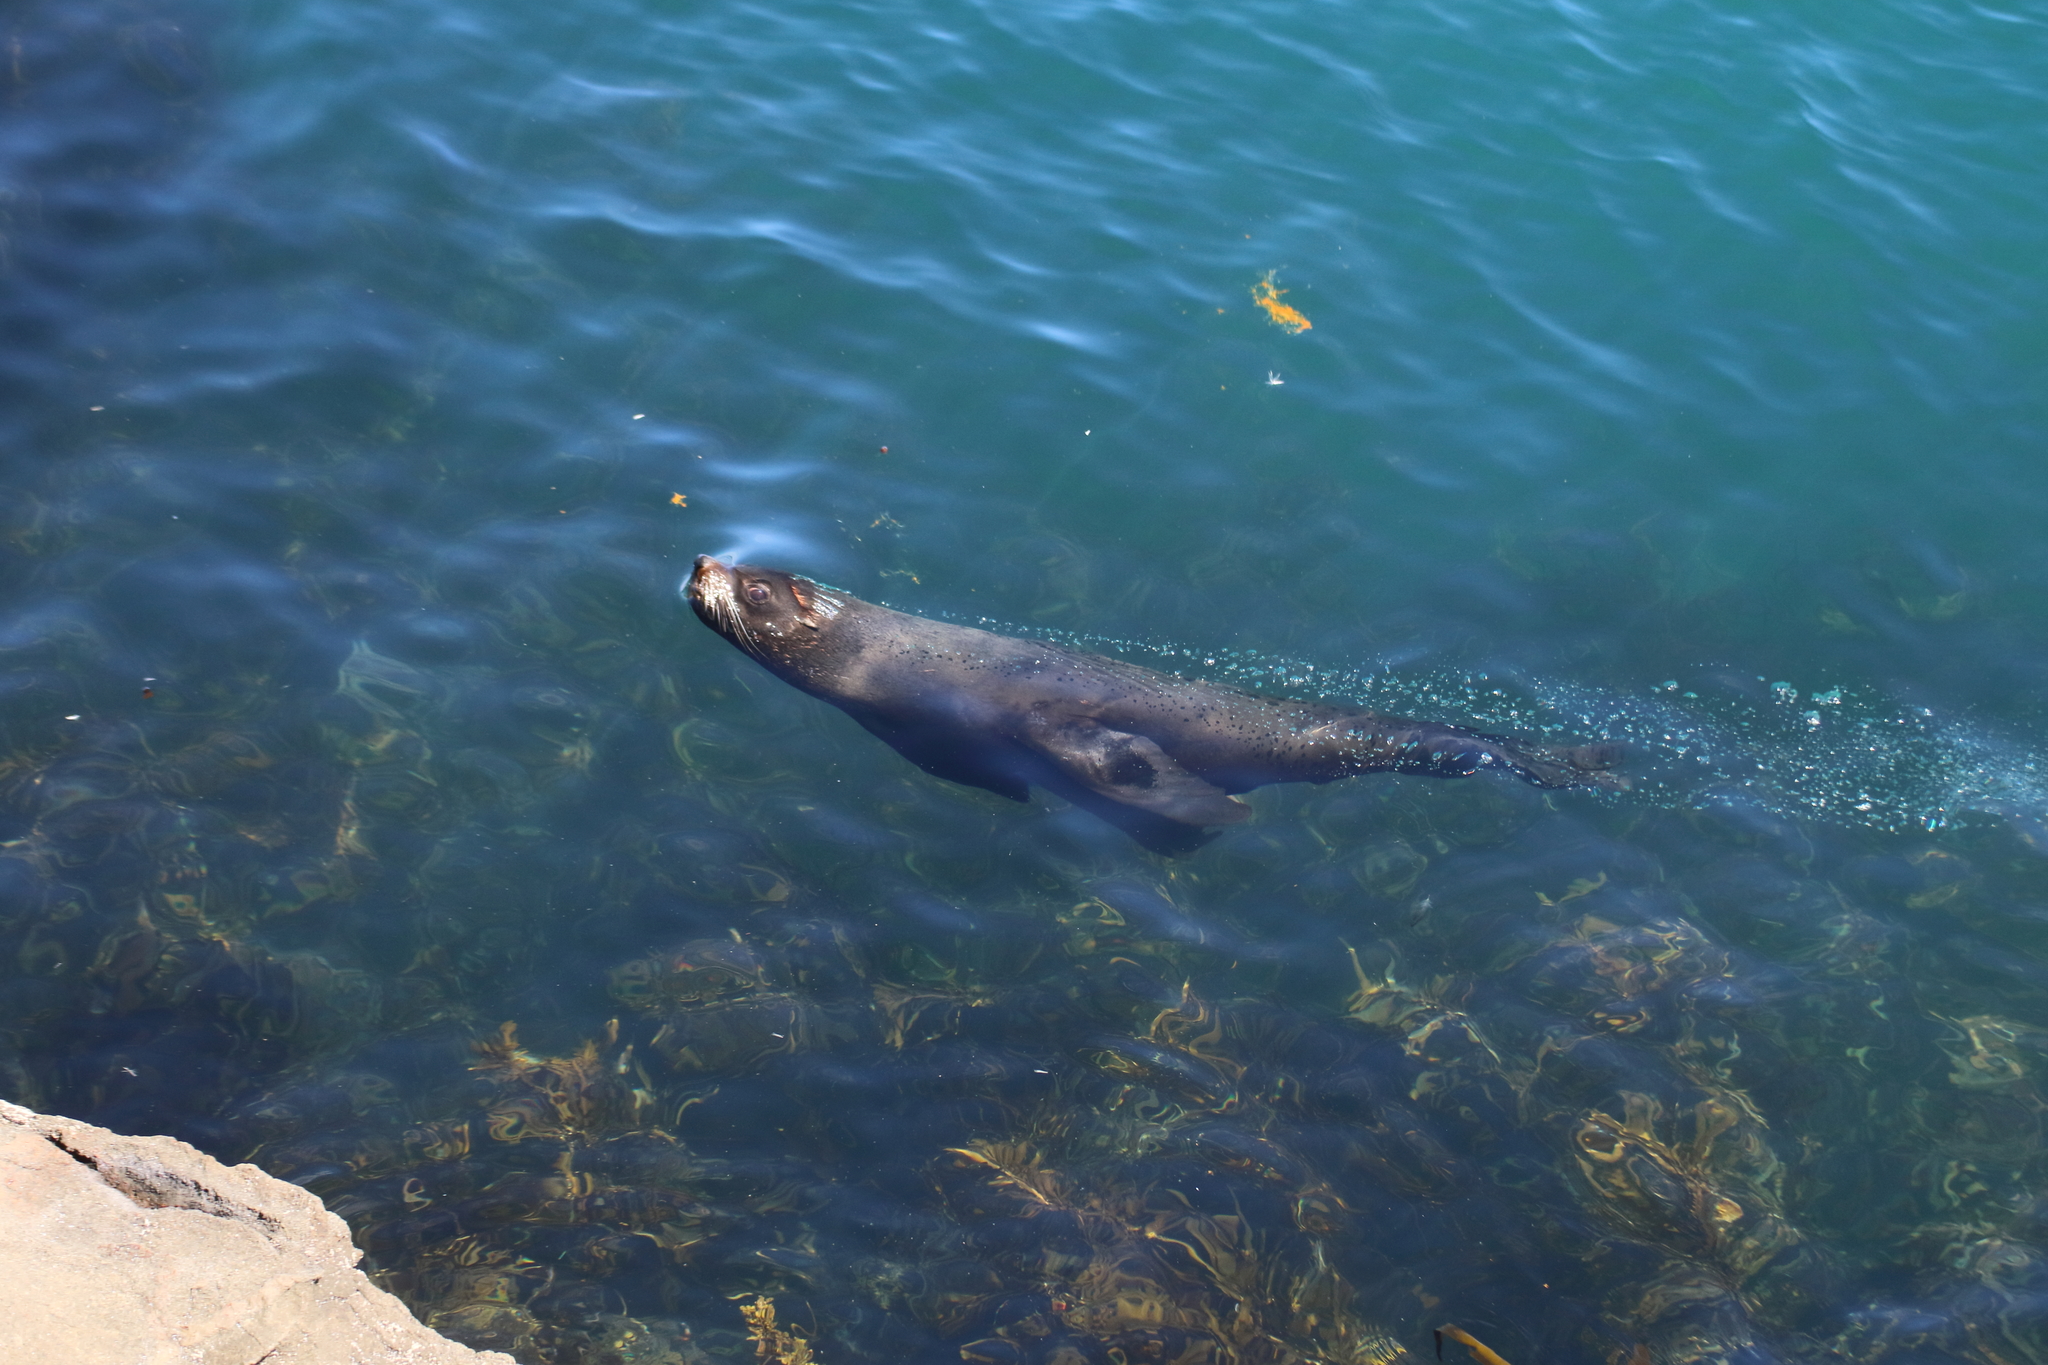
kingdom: Animalia
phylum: Chordata
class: Mammalia
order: Carnivora
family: Otariidae
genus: Arctocephalus
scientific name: Arctocephalus forsteri
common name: New zealand fur seal
